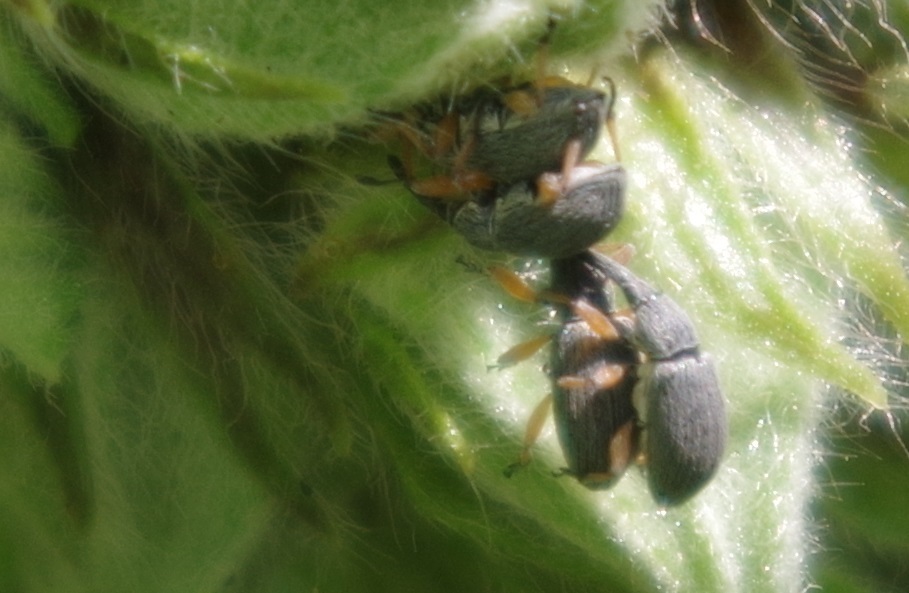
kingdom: Animalia
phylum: Arthropoda
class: Insecta
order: Coleoptera
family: Brentidae
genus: Rhopalapion
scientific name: Rhopalapion longirostre
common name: Hollyhock weevil
